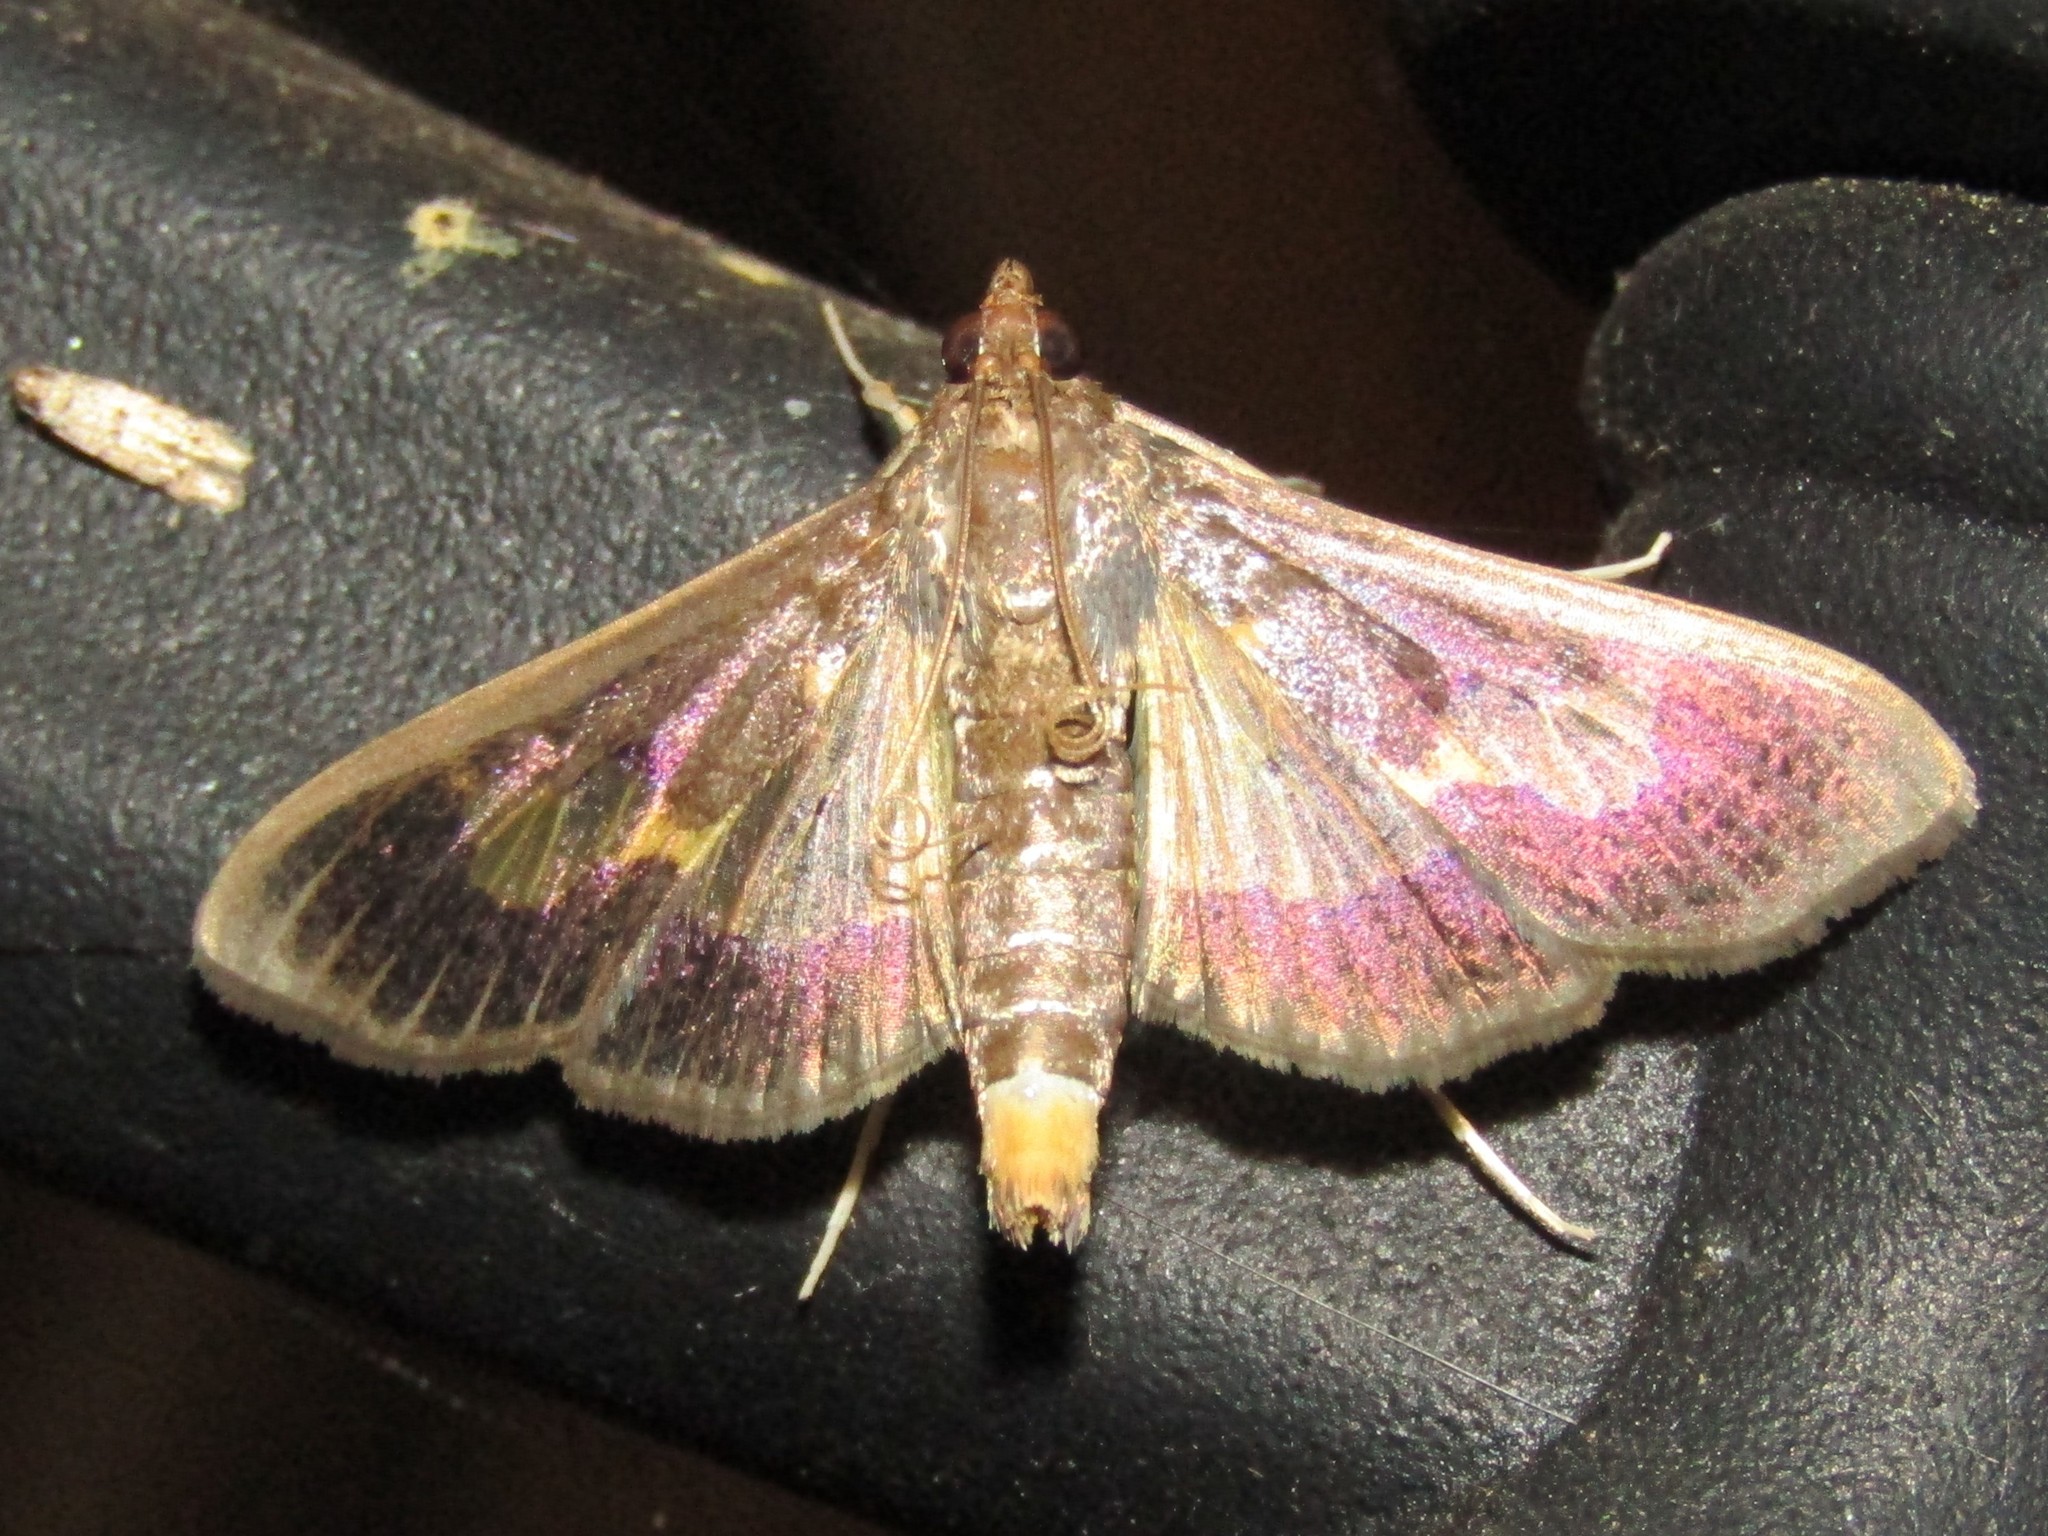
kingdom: Animalia
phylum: Arthropoda
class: Insecta
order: Lepidoptera
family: Crambidae
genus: Cryptographis
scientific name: Cryptographis nitidalis
